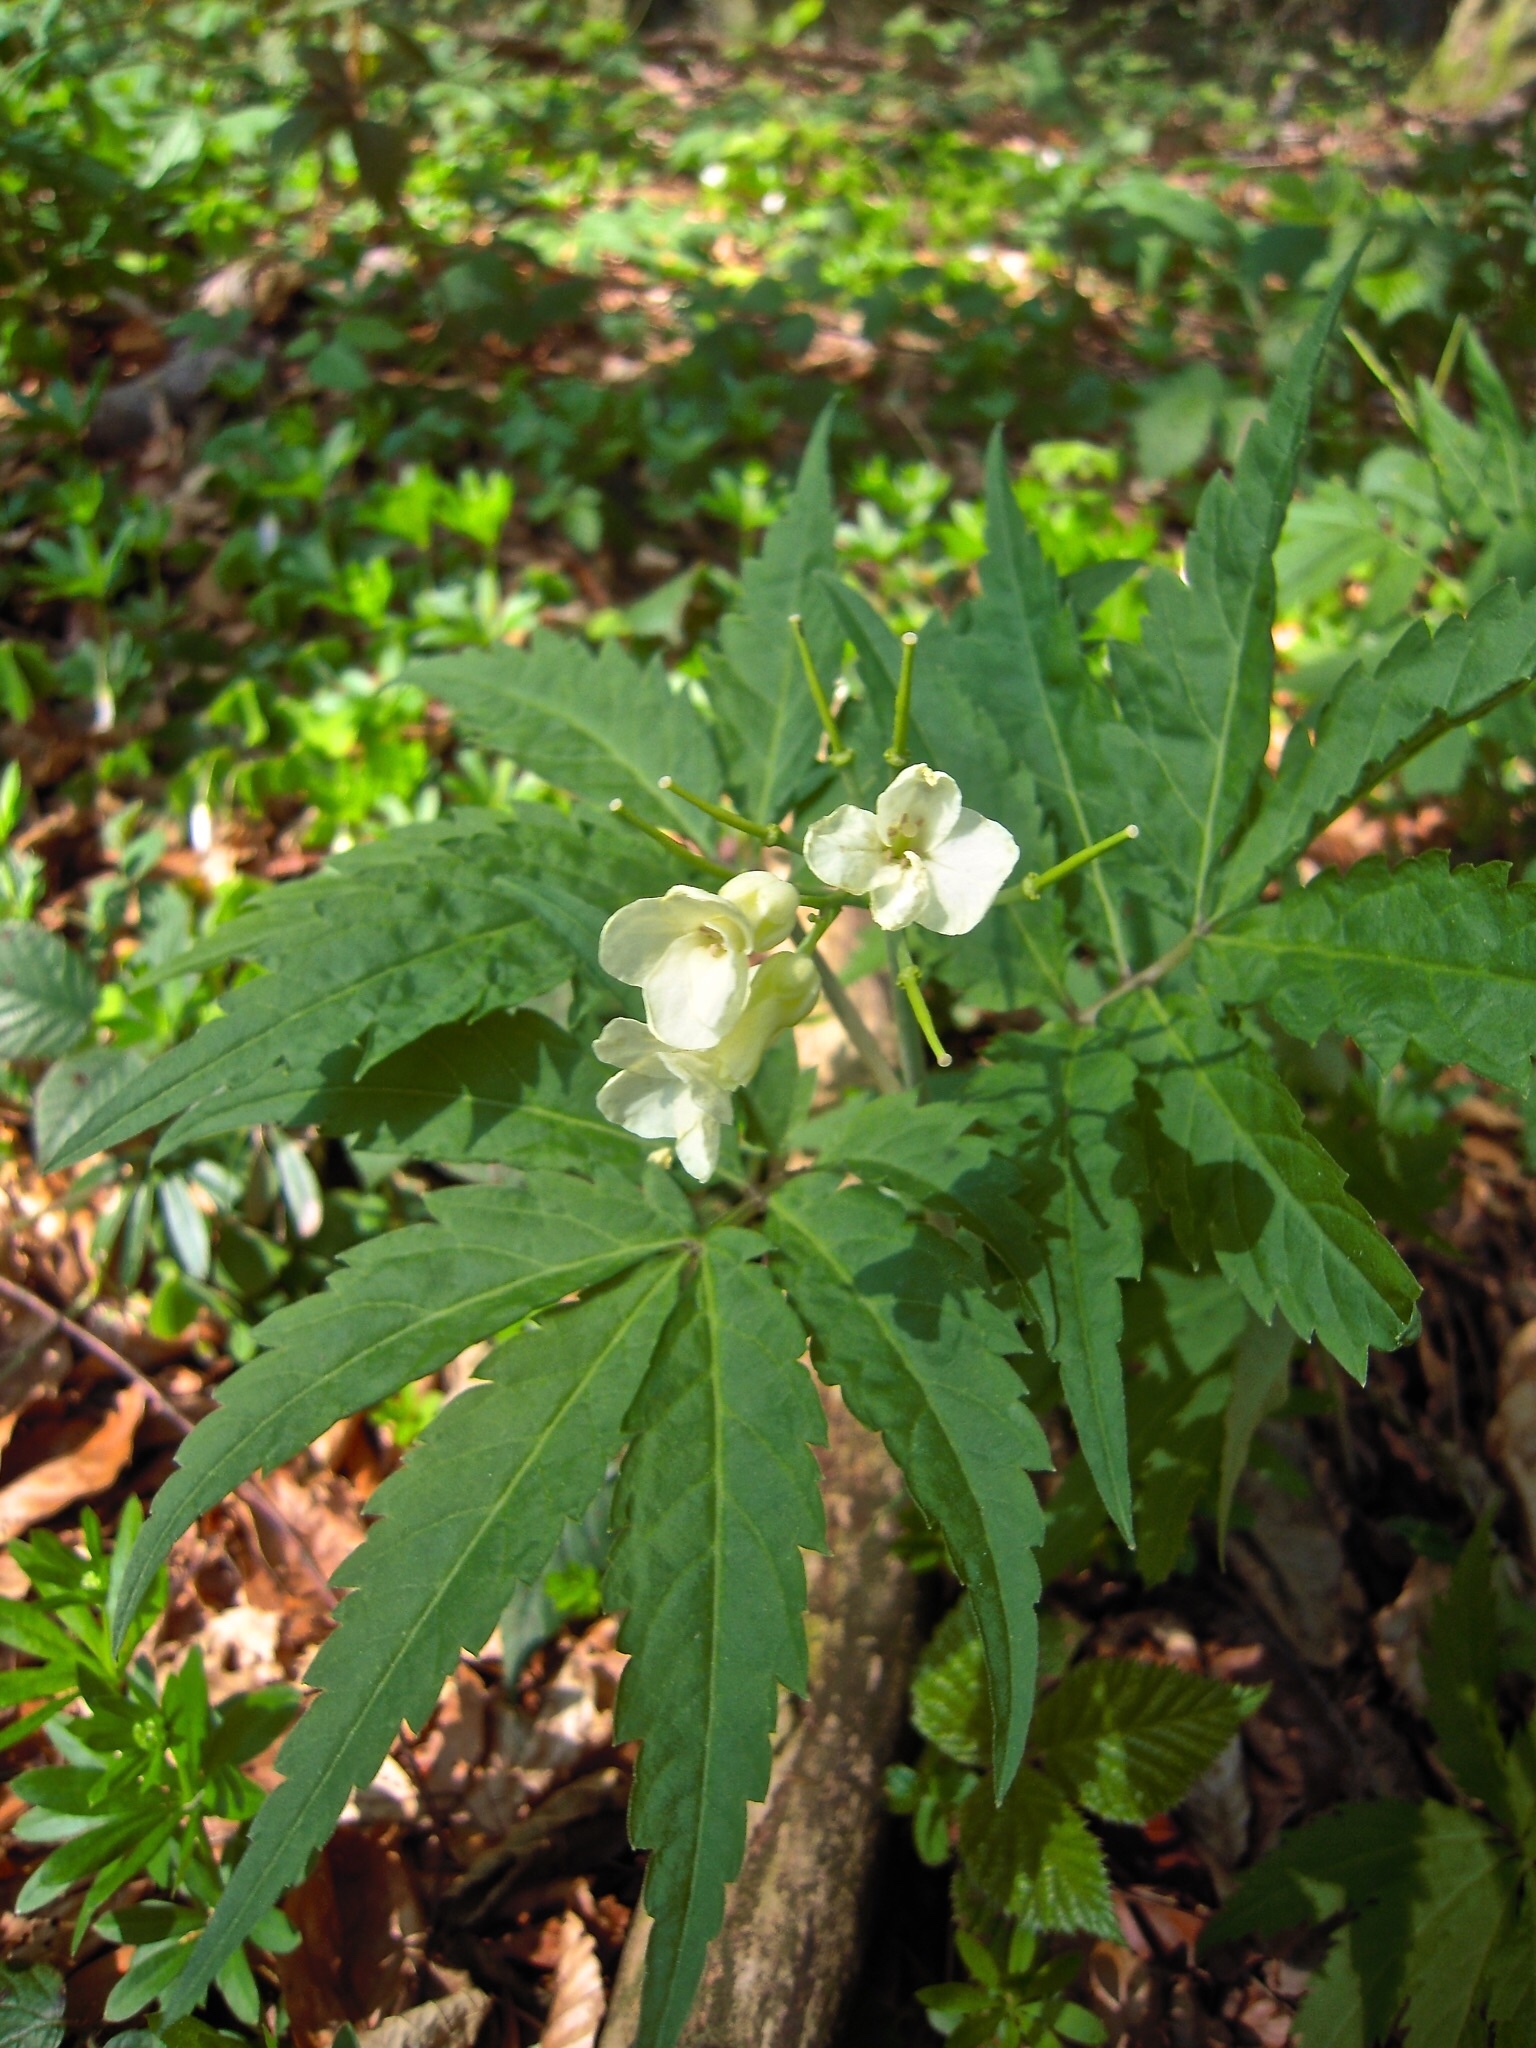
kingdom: Plantae
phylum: Tracheophyta
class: Magnoliopsida
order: Brassicales
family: Brassicaceae
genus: Cardamine
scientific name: Cardamine kitaibelii
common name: Kitaibel's bitter-cress
